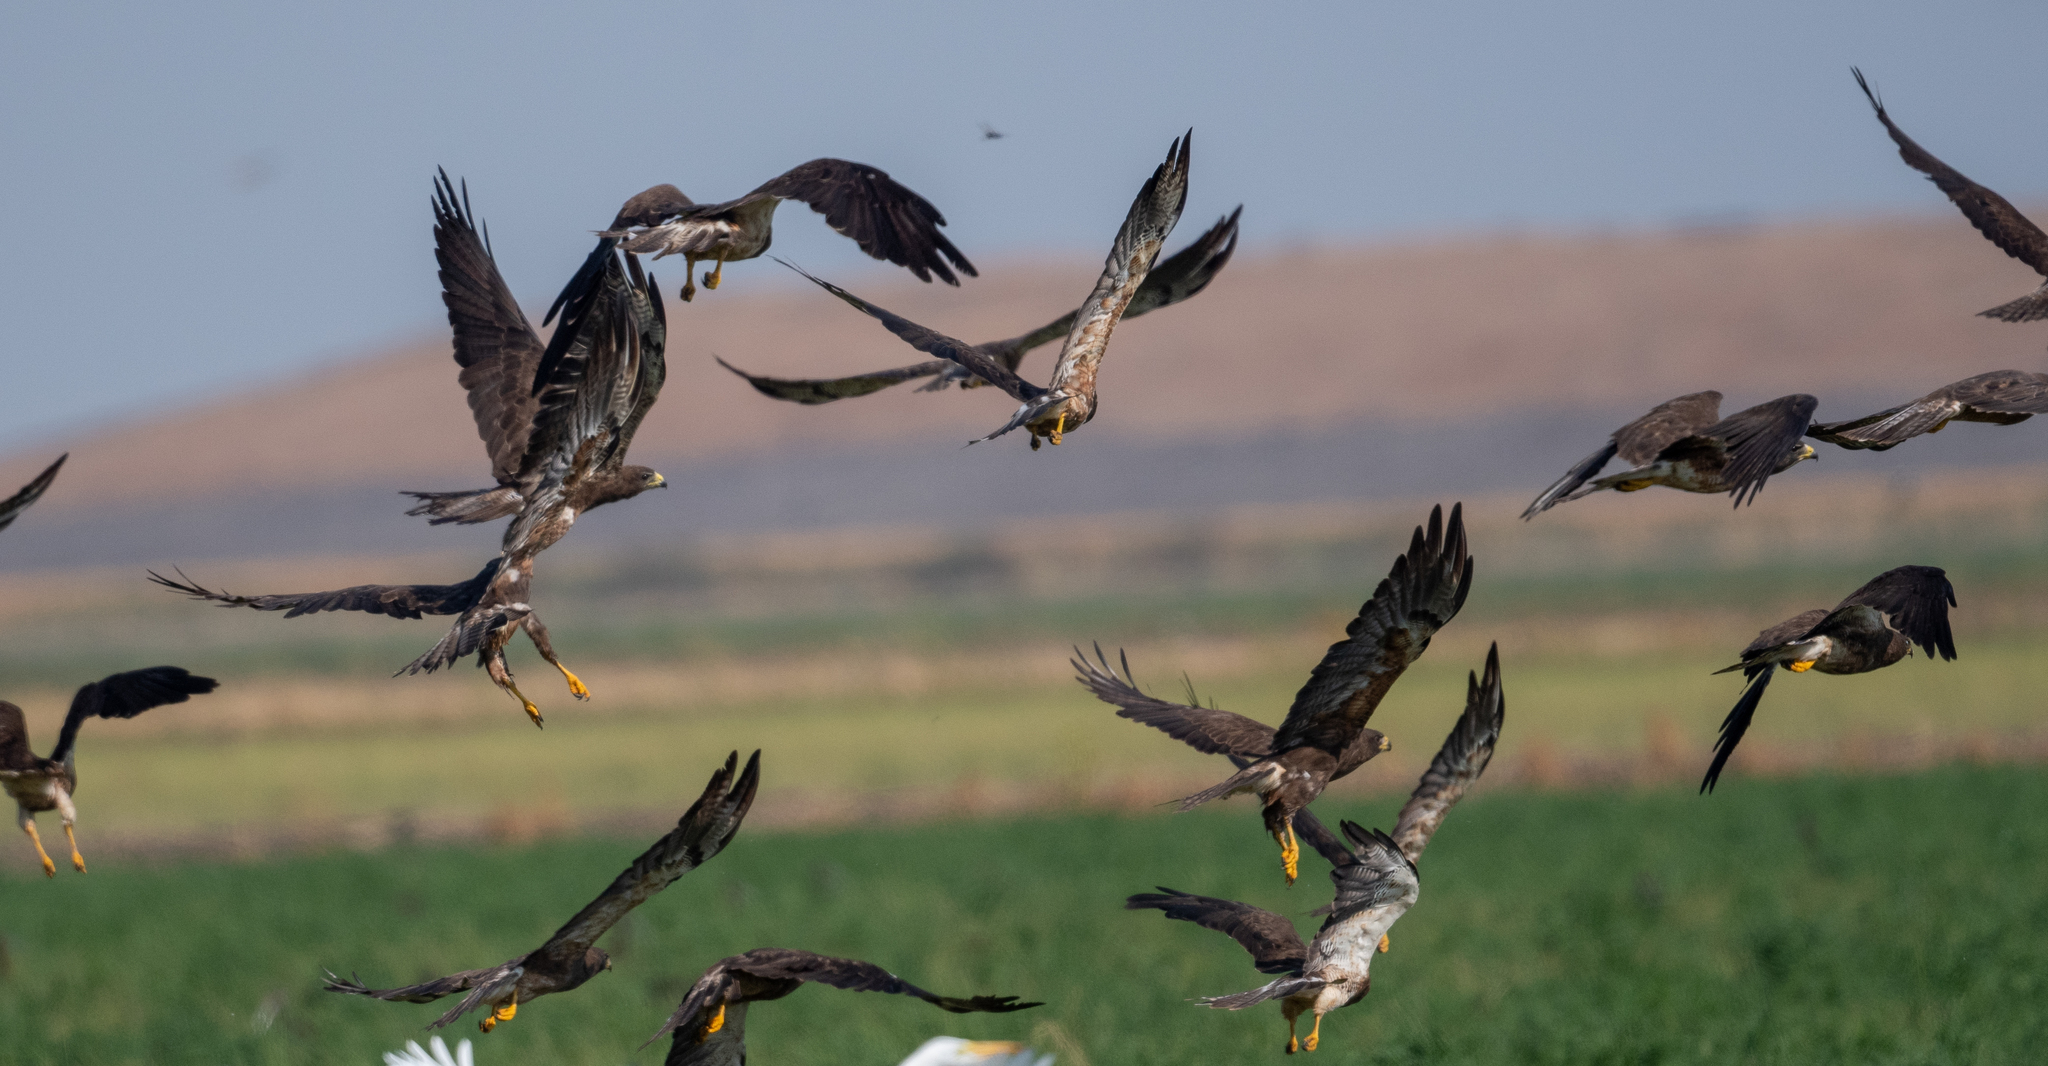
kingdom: Animalia
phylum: Chordata
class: Aves
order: Accipitriformes
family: Accipitridae
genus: Buteo
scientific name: Buteo swainsoni
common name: Swainson's hawk
